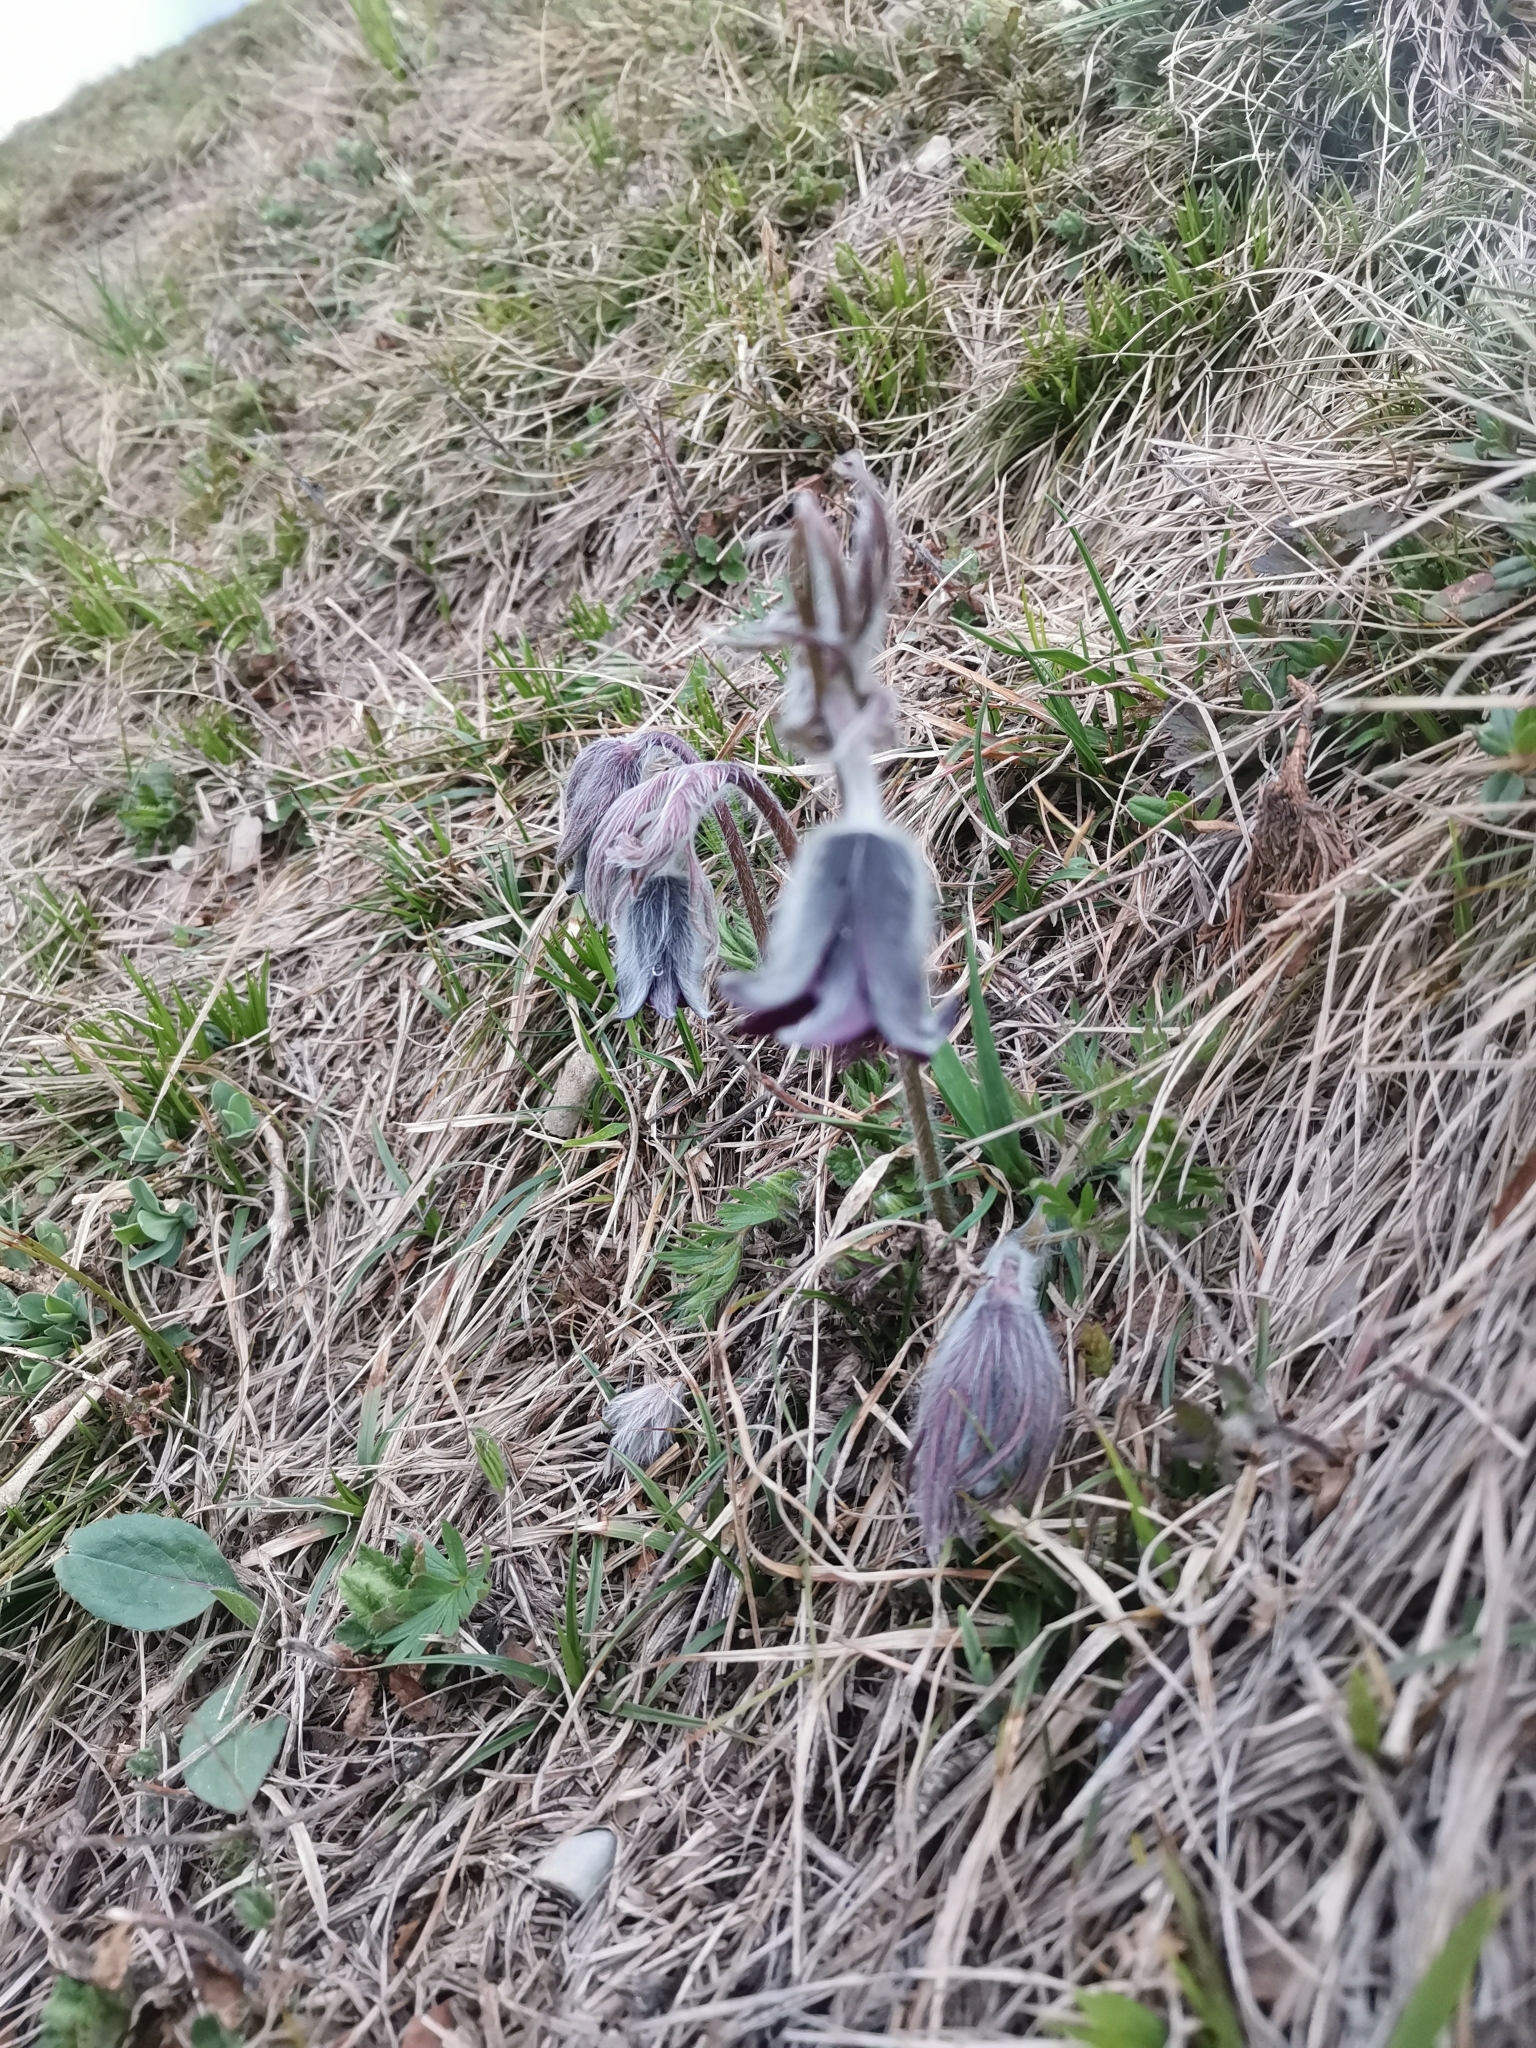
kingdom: Plantae
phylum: Tracheophyta
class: Magnoliopsida
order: Ranunculales
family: Ranunculaceae
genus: Pulsatilla
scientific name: Pulsatilla pratensis
